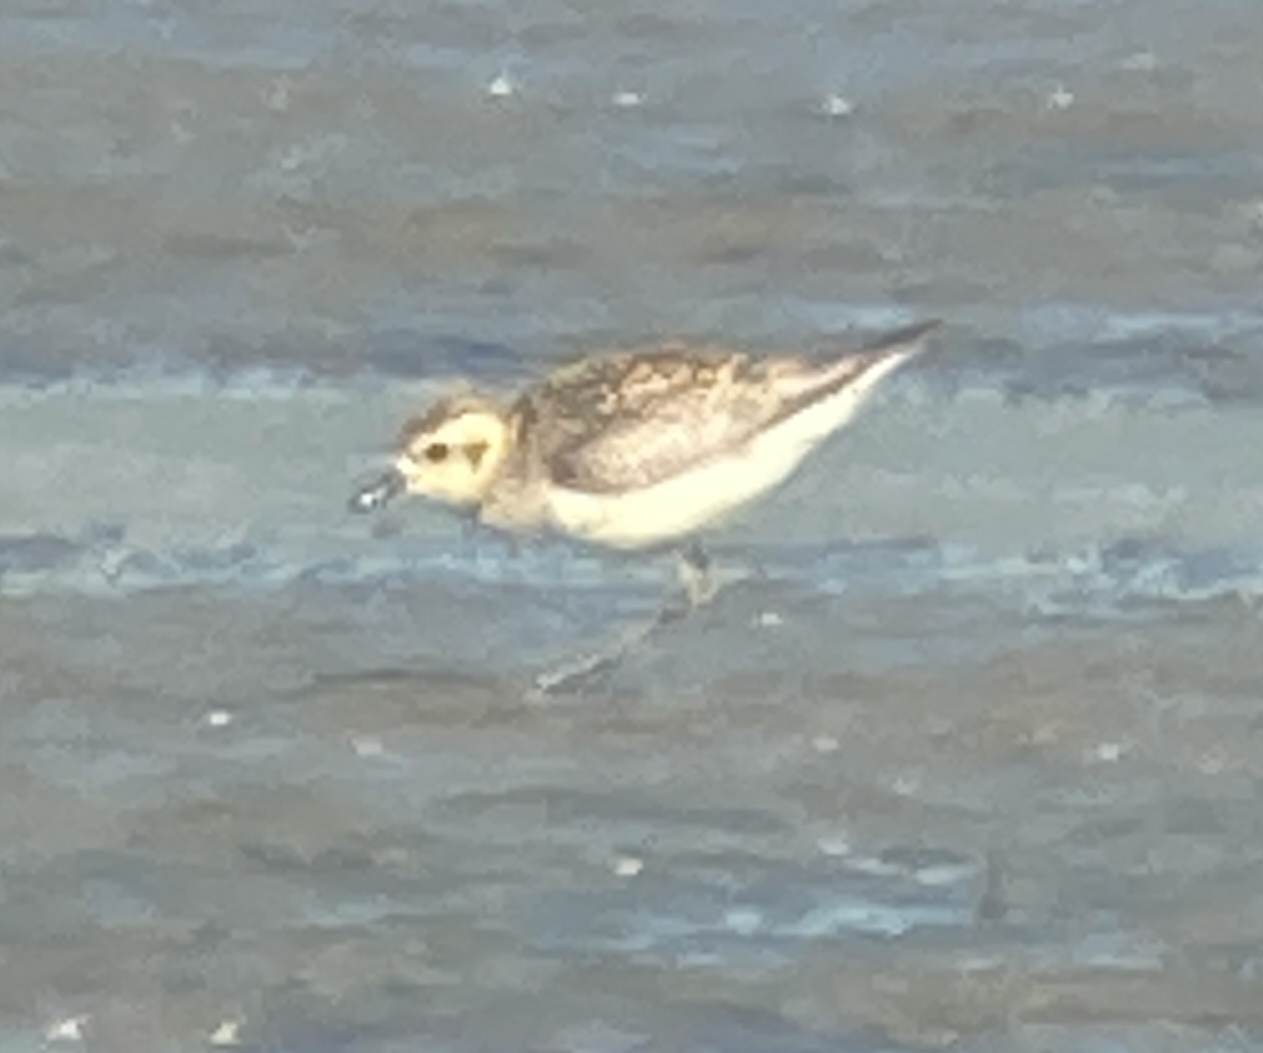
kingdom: Animalia
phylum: Chordata
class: Aves
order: Charadriiformes
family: Charadriidae
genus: Pluvialis
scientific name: Pluvialis fulva
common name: Pacific golden plover
